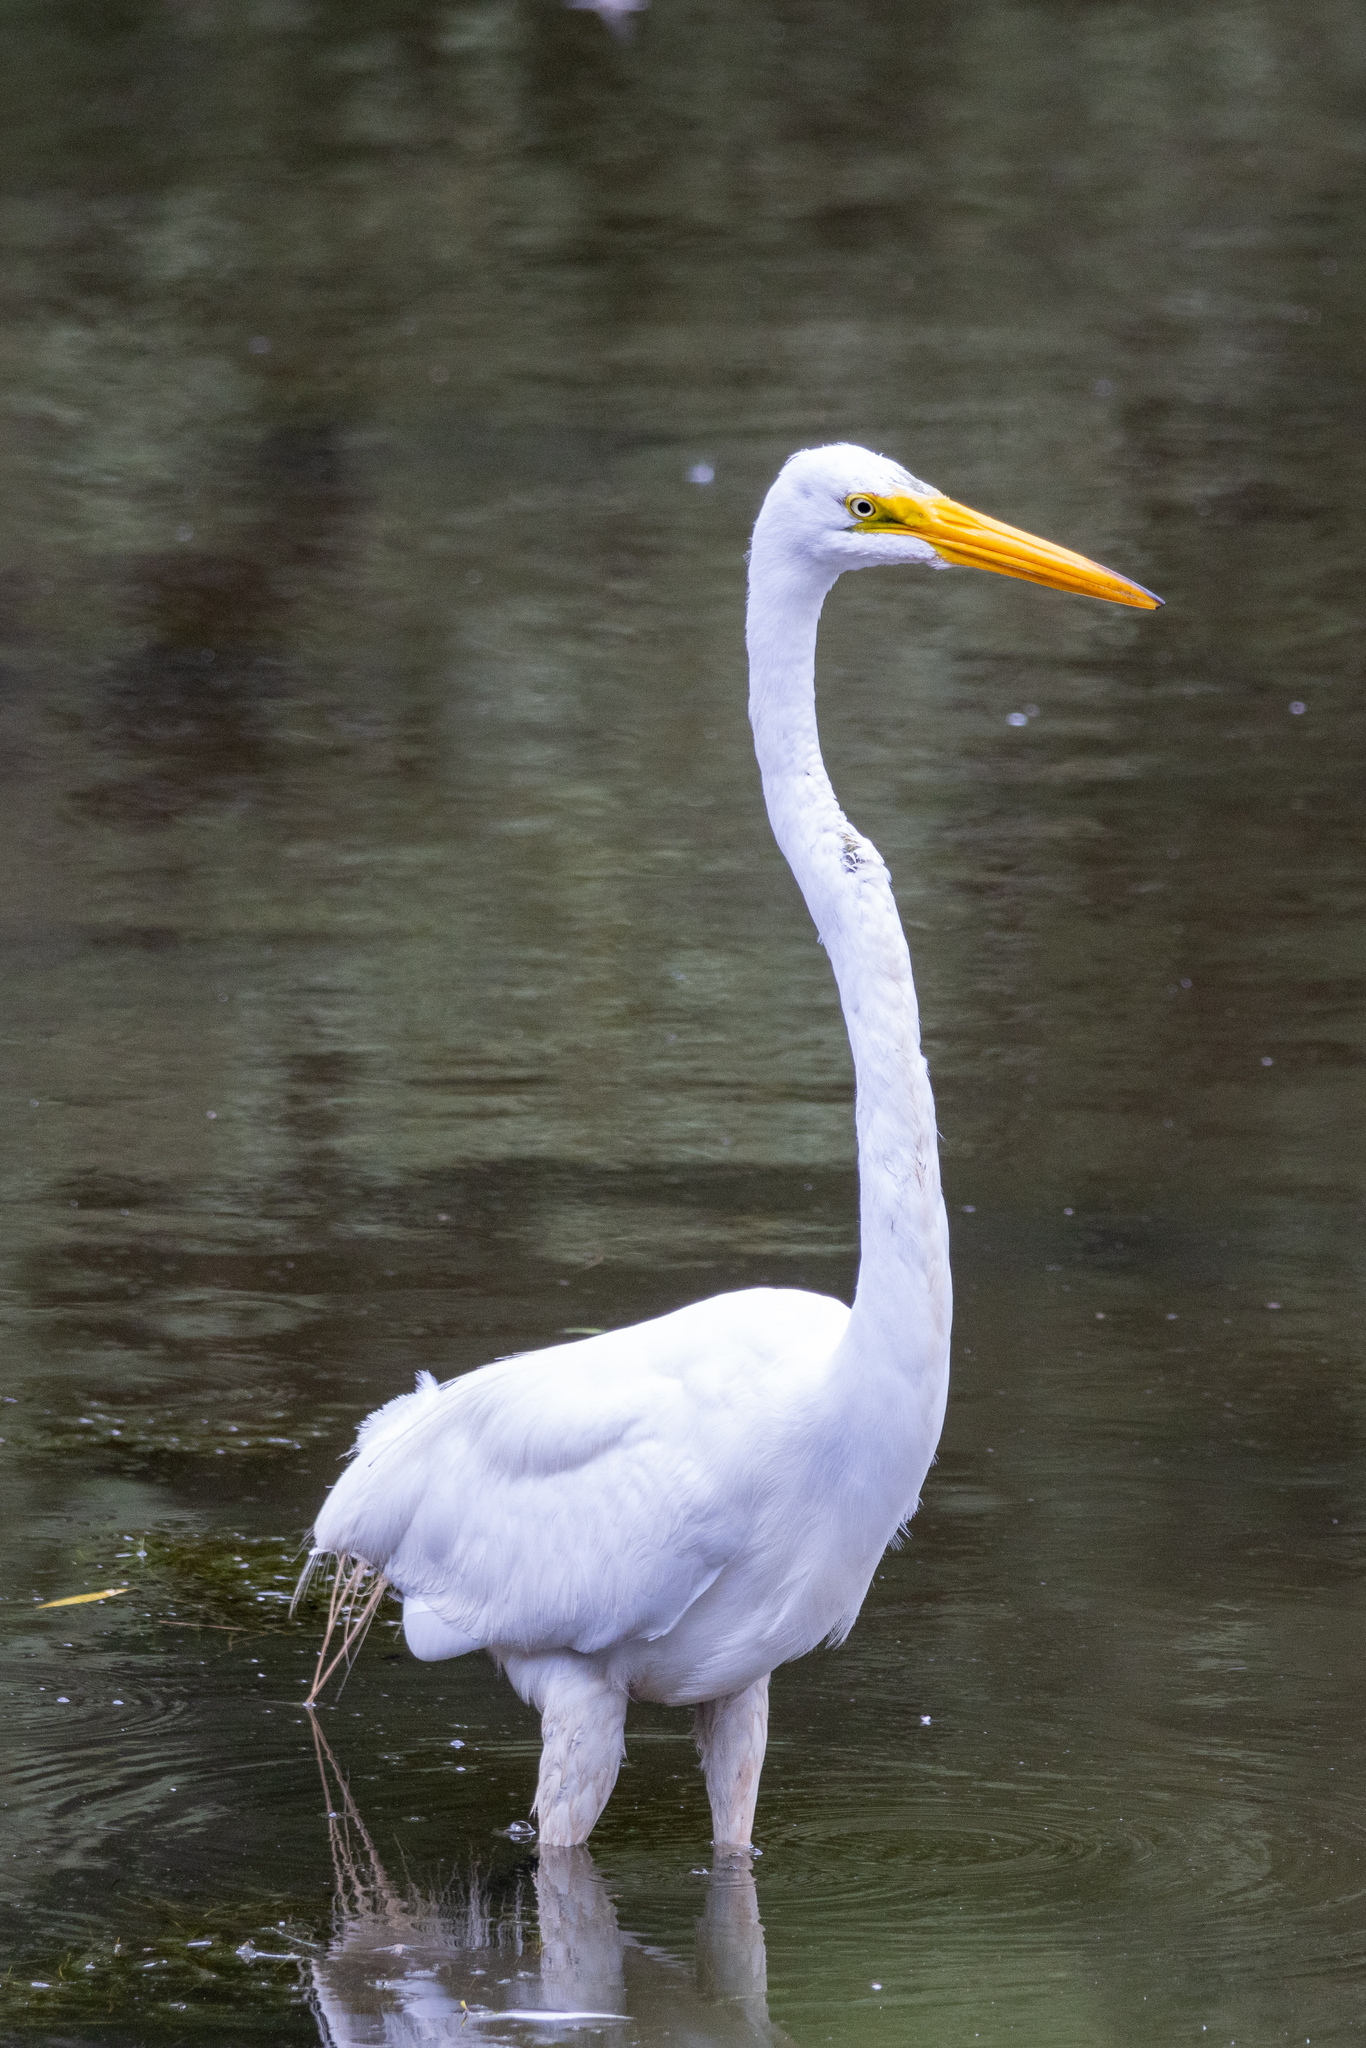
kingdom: Animalia
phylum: Chordata
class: Aves
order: Pelecaniformes
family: Ardeidae
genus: Ardea
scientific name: Ardea alba
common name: Great egret
